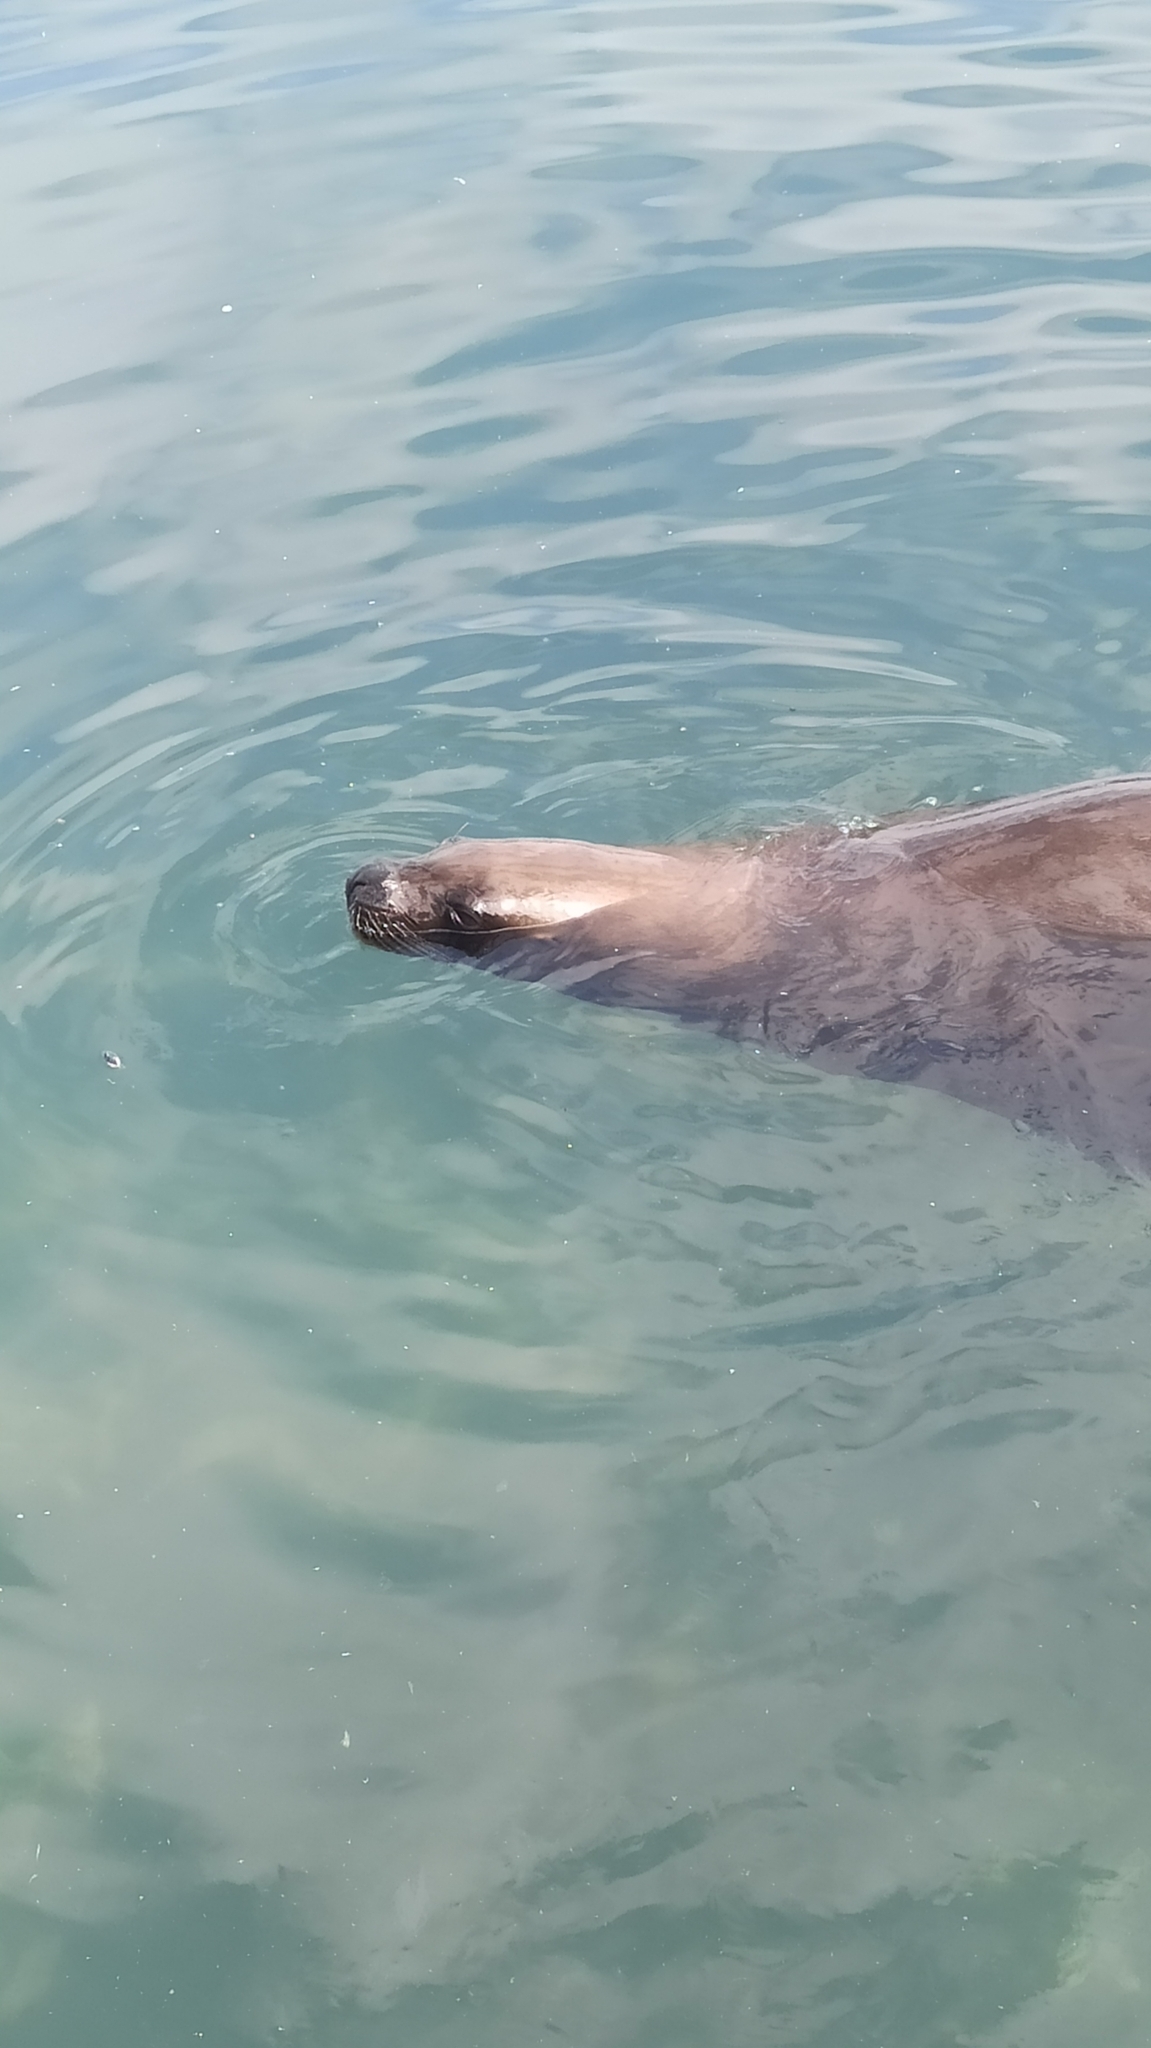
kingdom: Animalia
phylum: Chordata
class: Mammalia
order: Carnivora
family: Otariidae
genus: Otaria
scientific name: Otaria byronia
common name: South american sea lion
